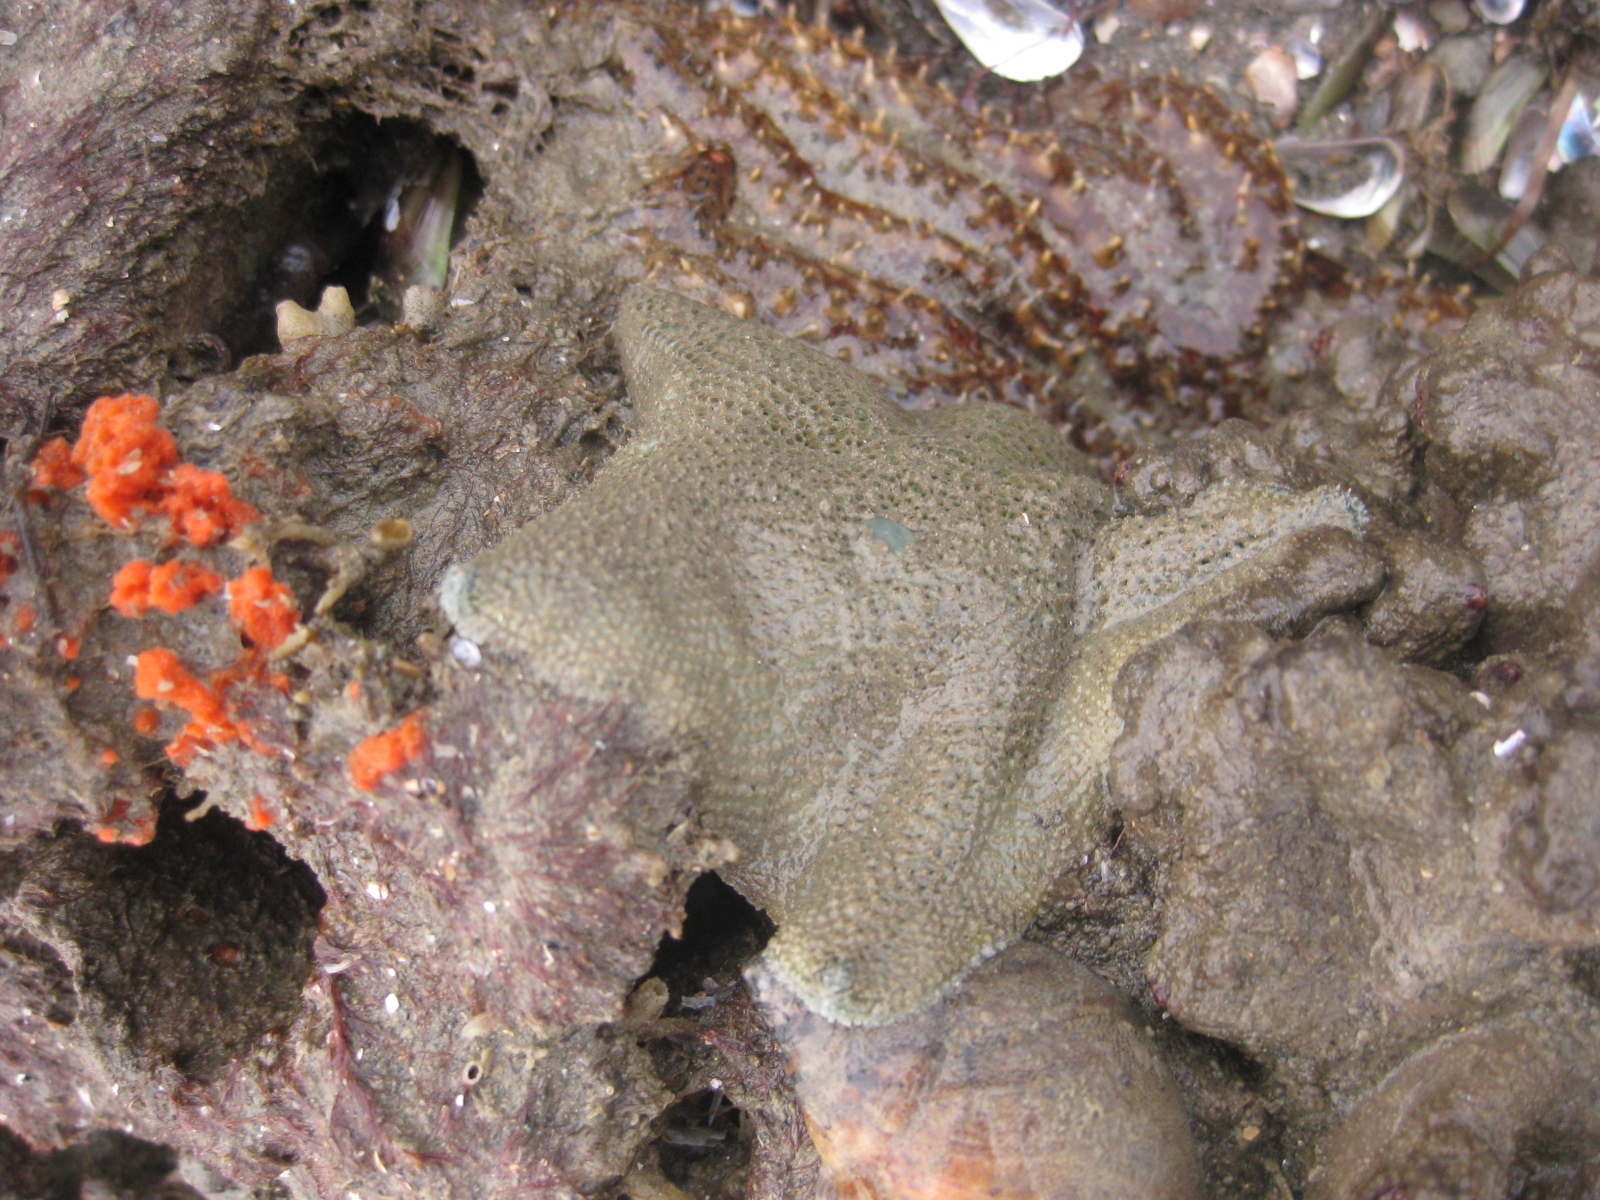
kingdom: Animalia
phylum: Echinodermata
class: Asteroidea
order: Valvatida
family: Asterinidae
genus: Patiriella
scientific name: Patiriella regularis
